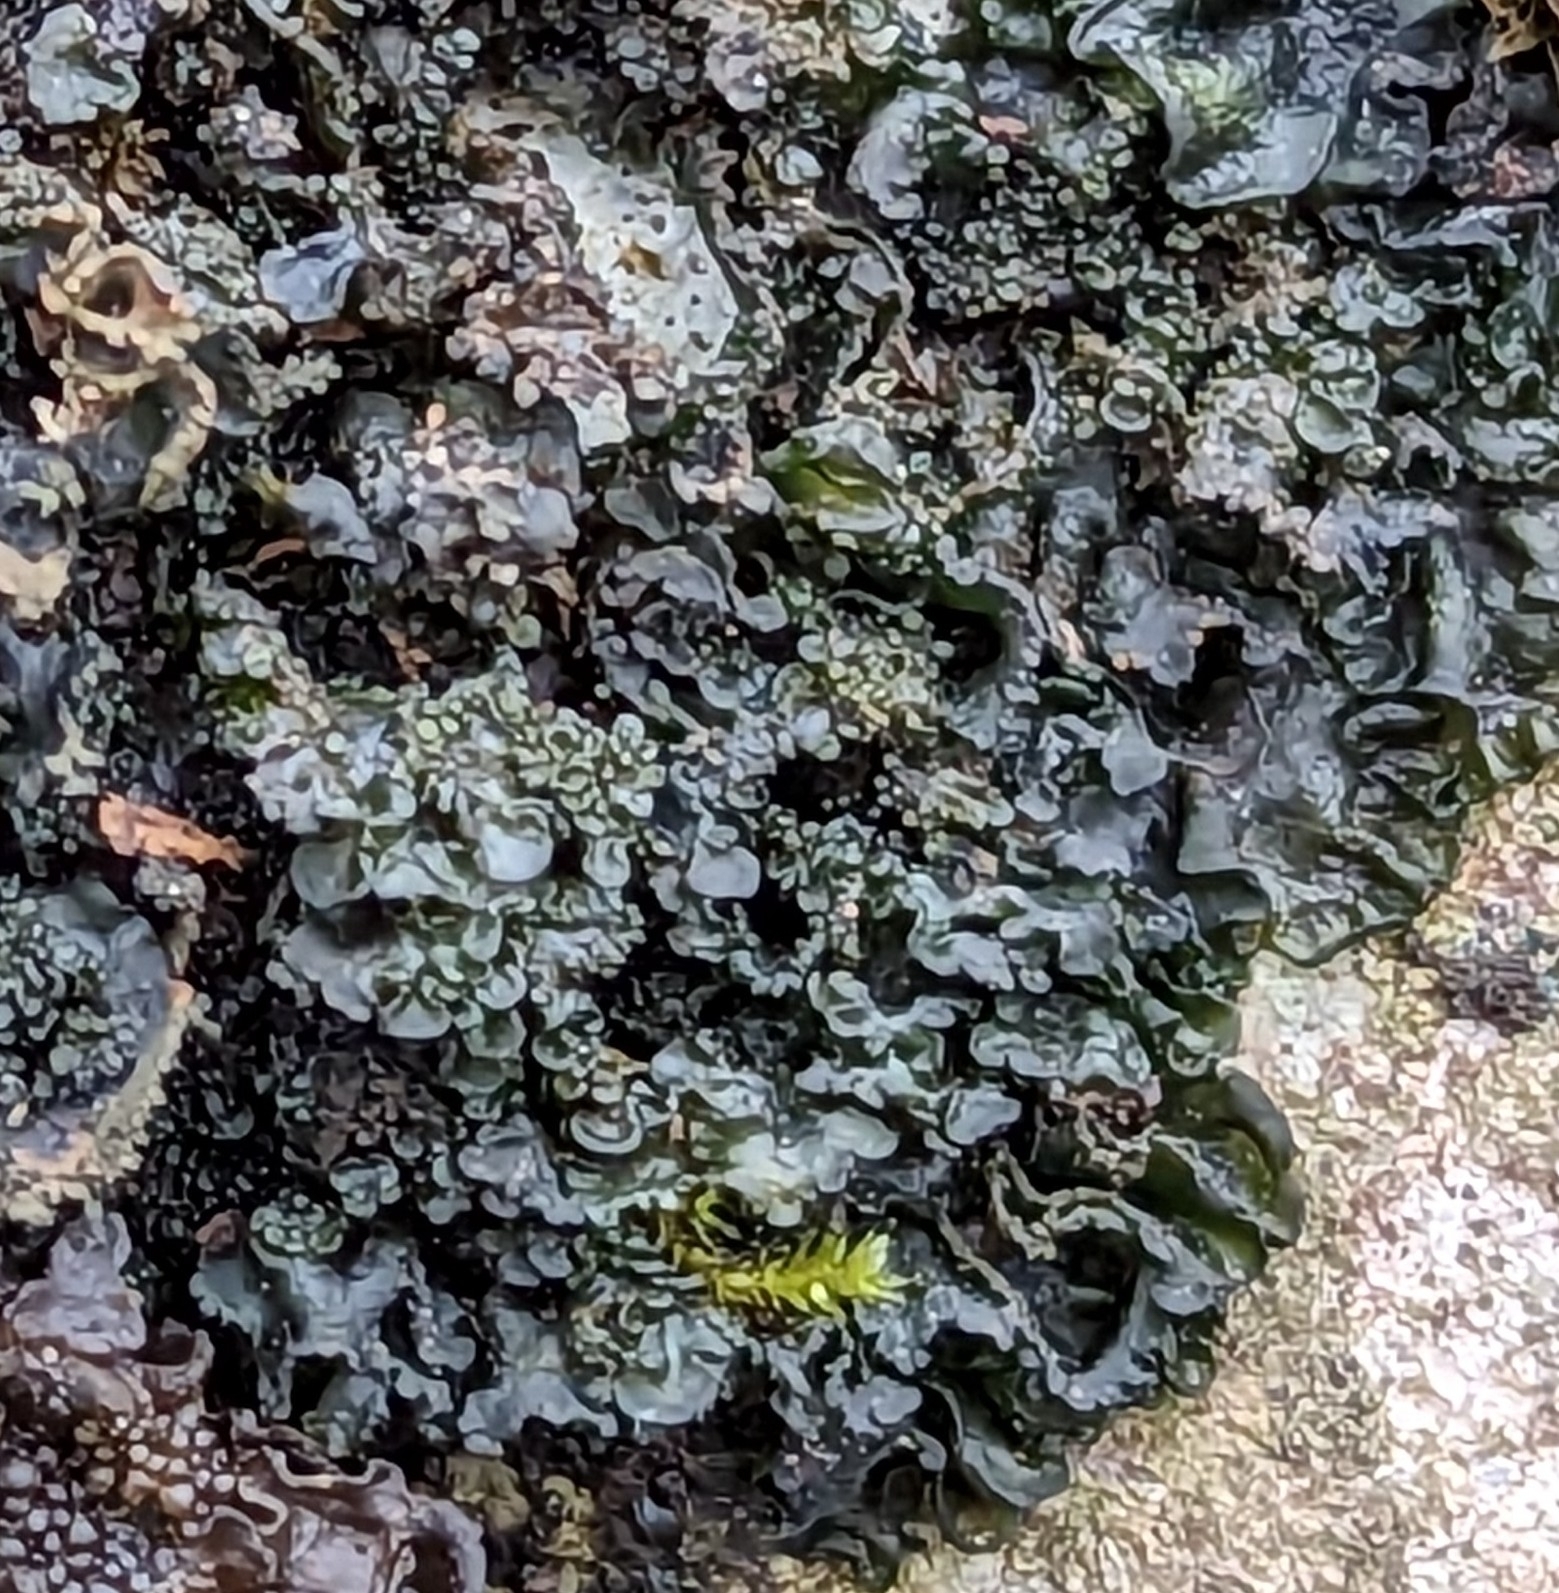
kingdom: Fungi
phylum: Ascomycota
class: Lecanoromycetes
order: Peltigerales
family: Collemataceae
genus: Blennothallia
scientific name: Blennothallia crispa
